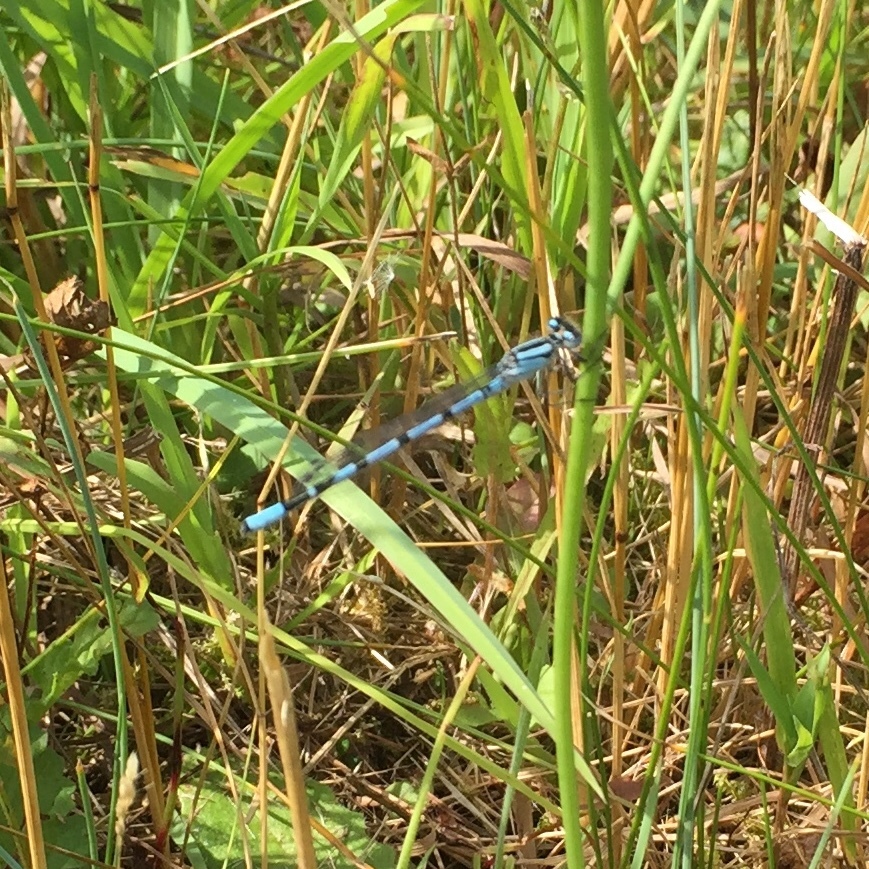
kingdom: Animalia
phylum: Arthropoda
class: Insecta
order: Odonata
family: Coenagrionidae
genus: Enallagma
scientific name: Enallagma cyathigerum
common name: Common blue damselfly
